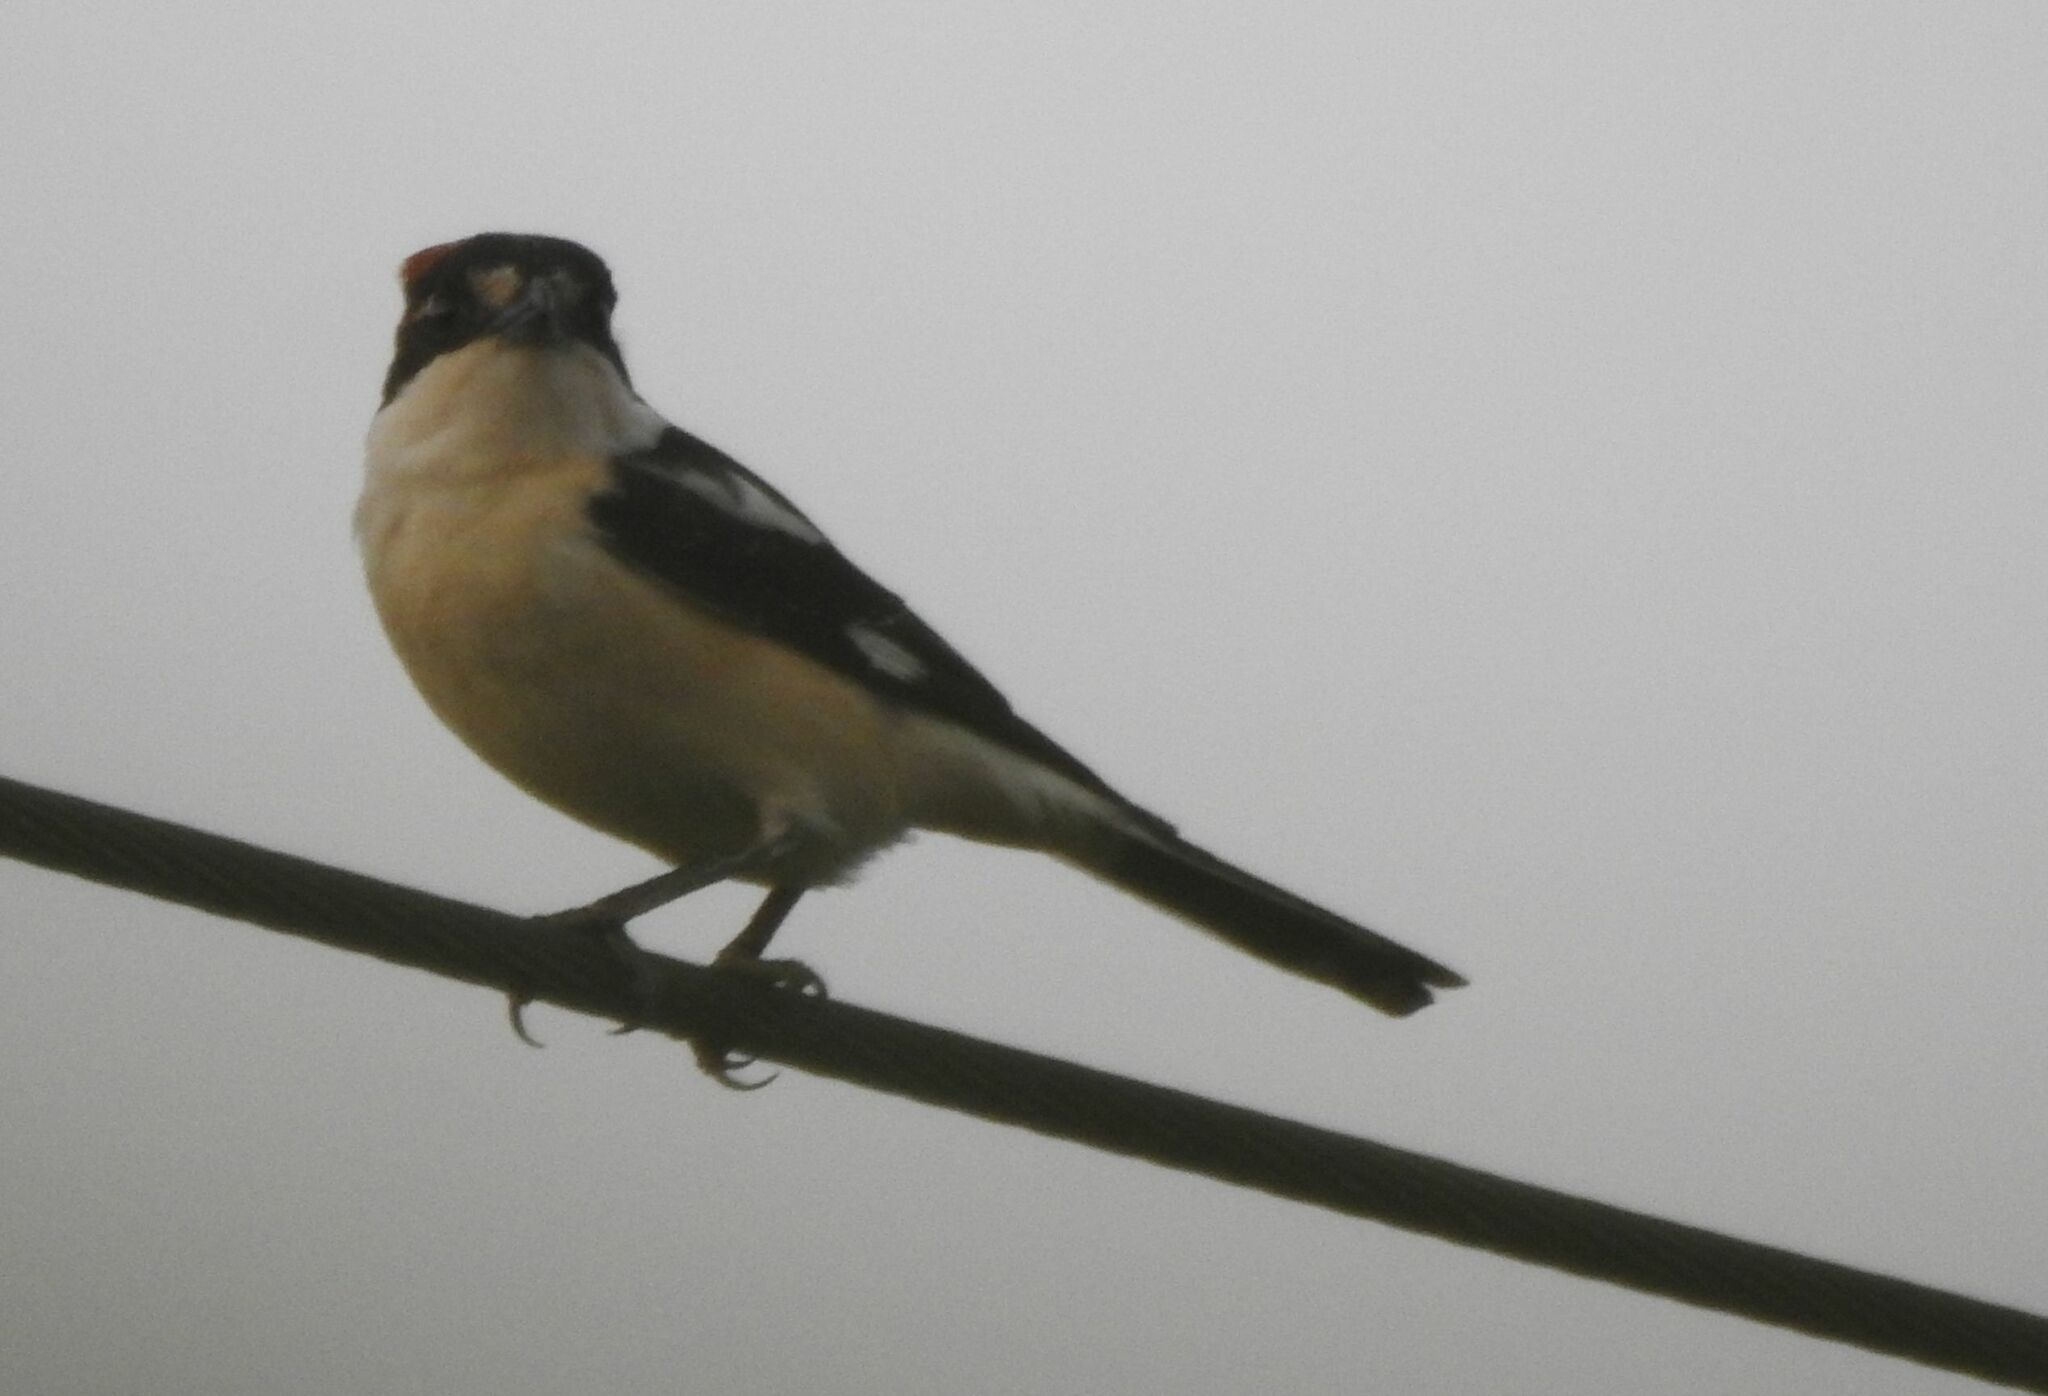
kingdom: Animalia
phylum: Chordata
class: Aves
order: Passeriformes
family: Laniidae
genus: Lanius
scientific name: Lanius senator
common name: Woodchat shrike
